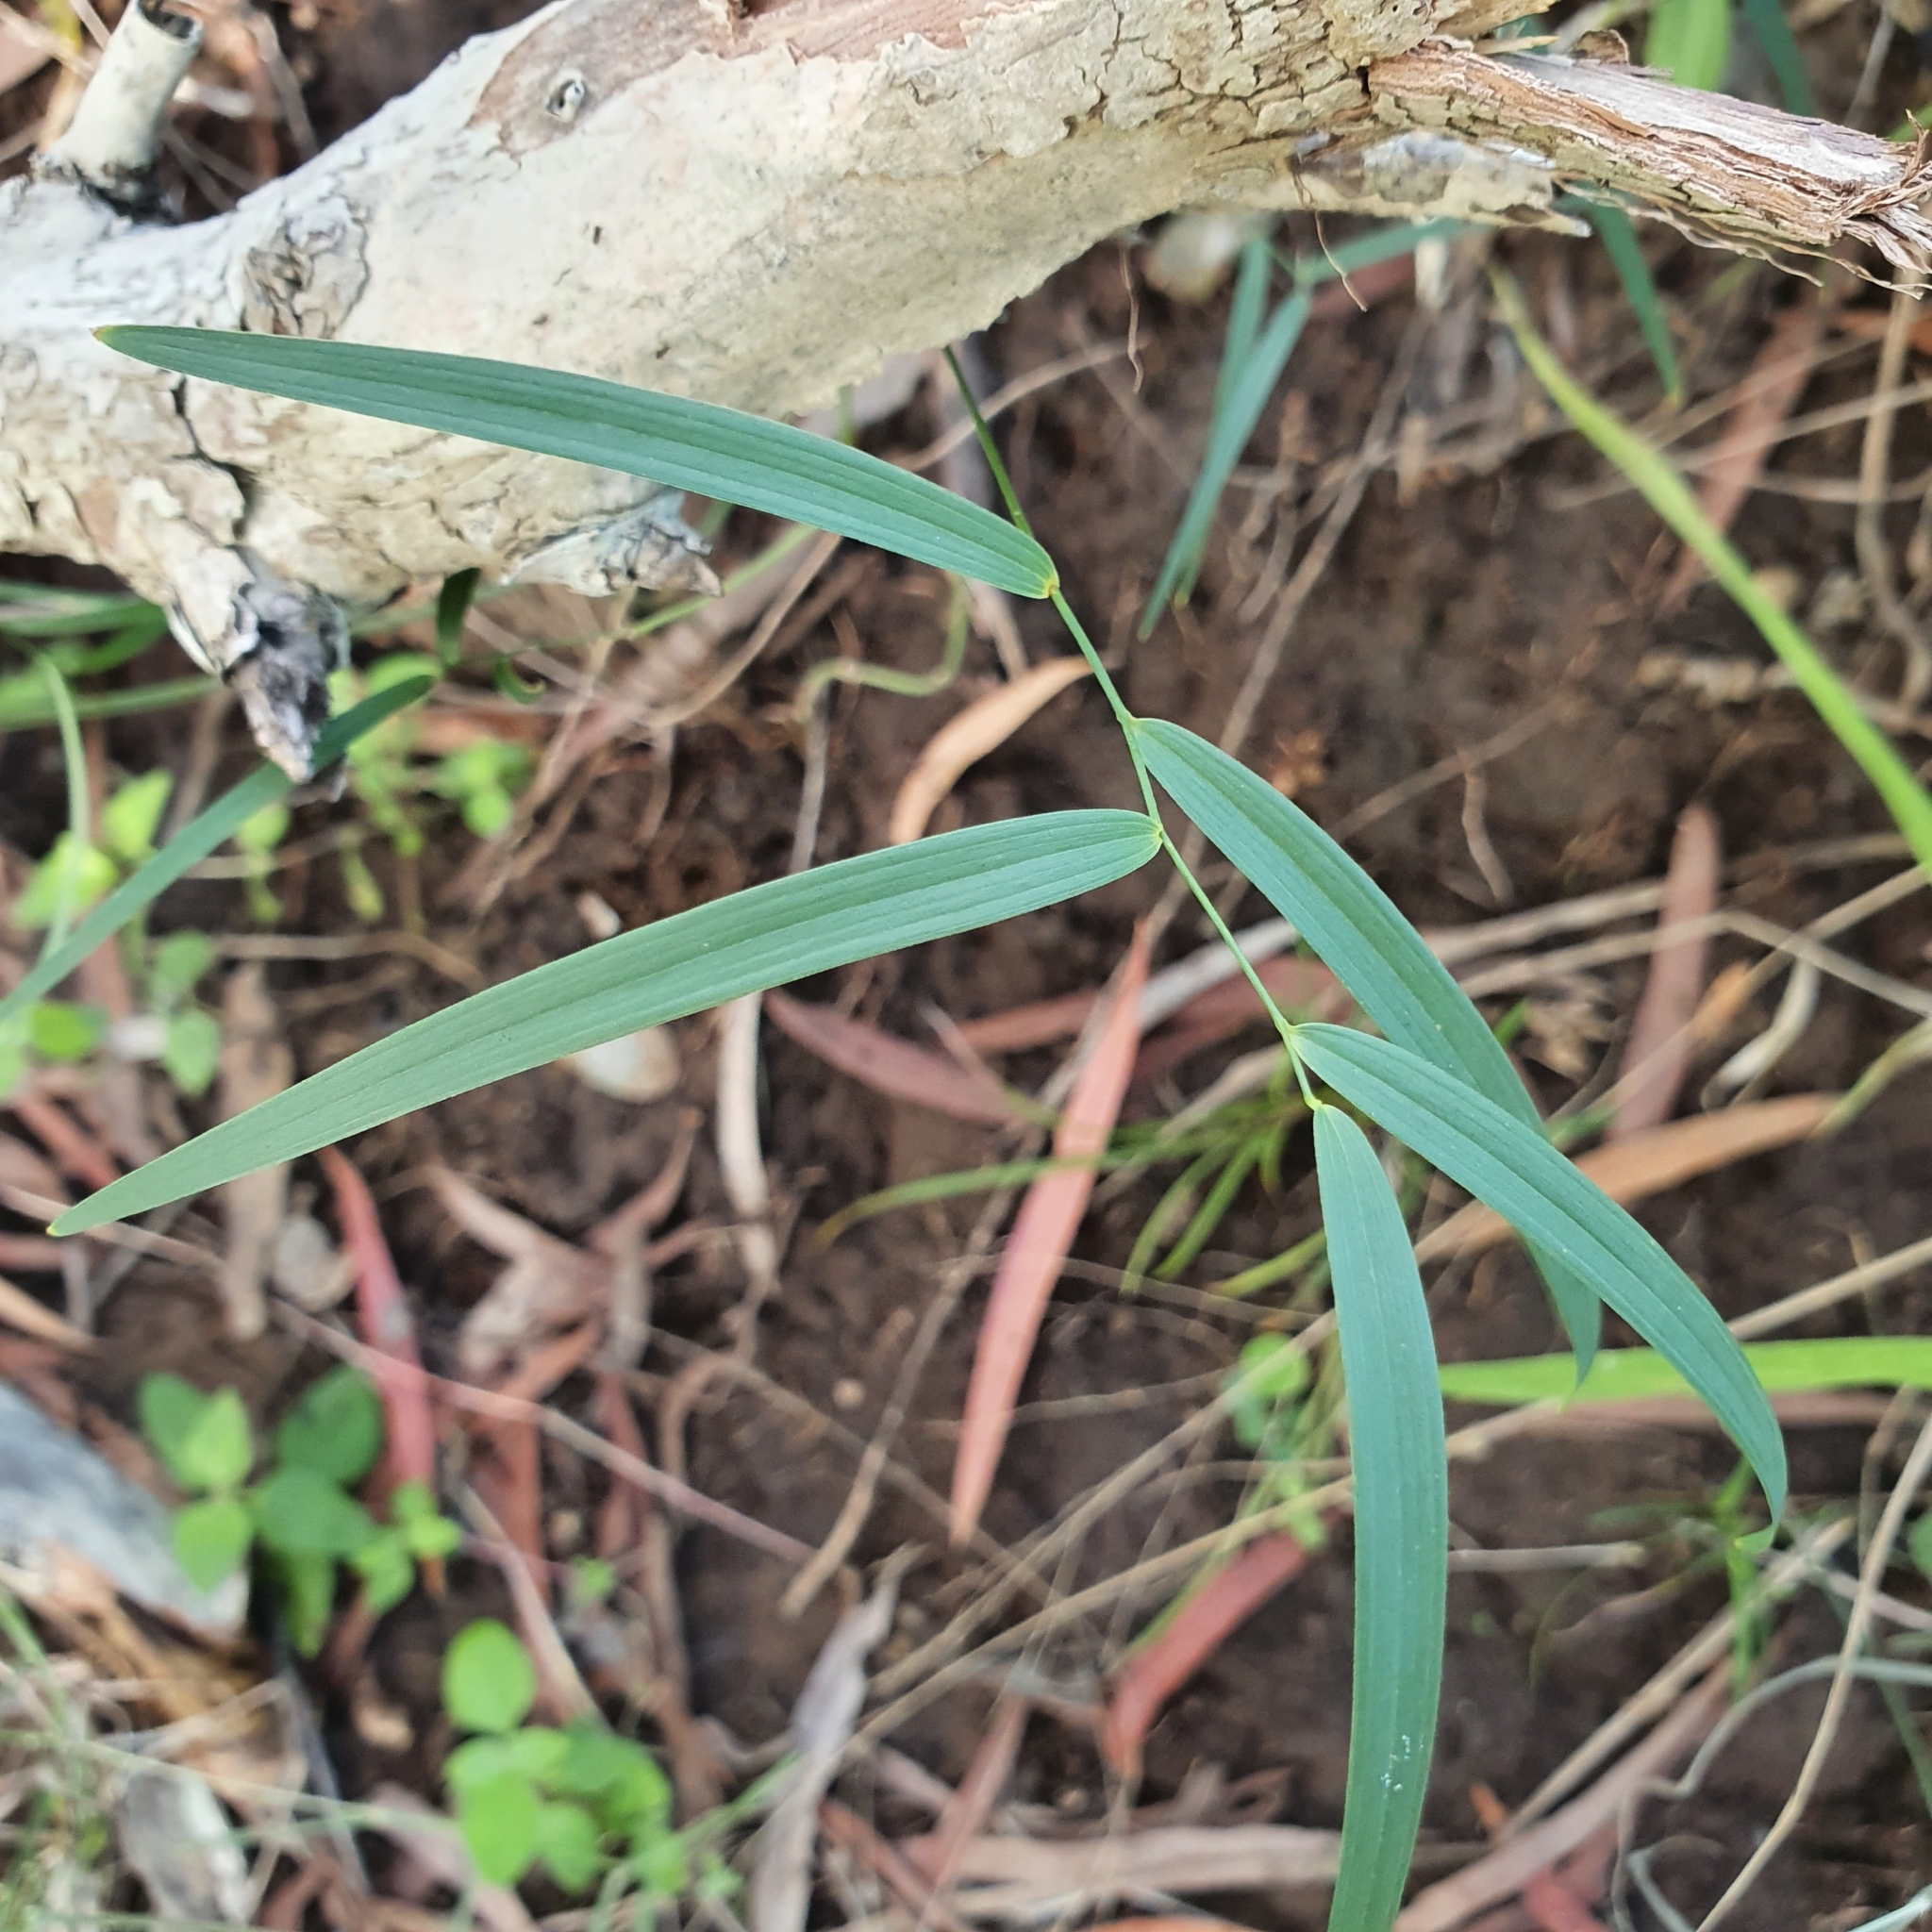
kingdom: Plantae
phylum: Tracheophyta
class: Liliopsida
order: Asparagales
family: Asparagaceae
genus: Eustrephus
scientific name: Eustrephus latifolius
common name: Orangevine
